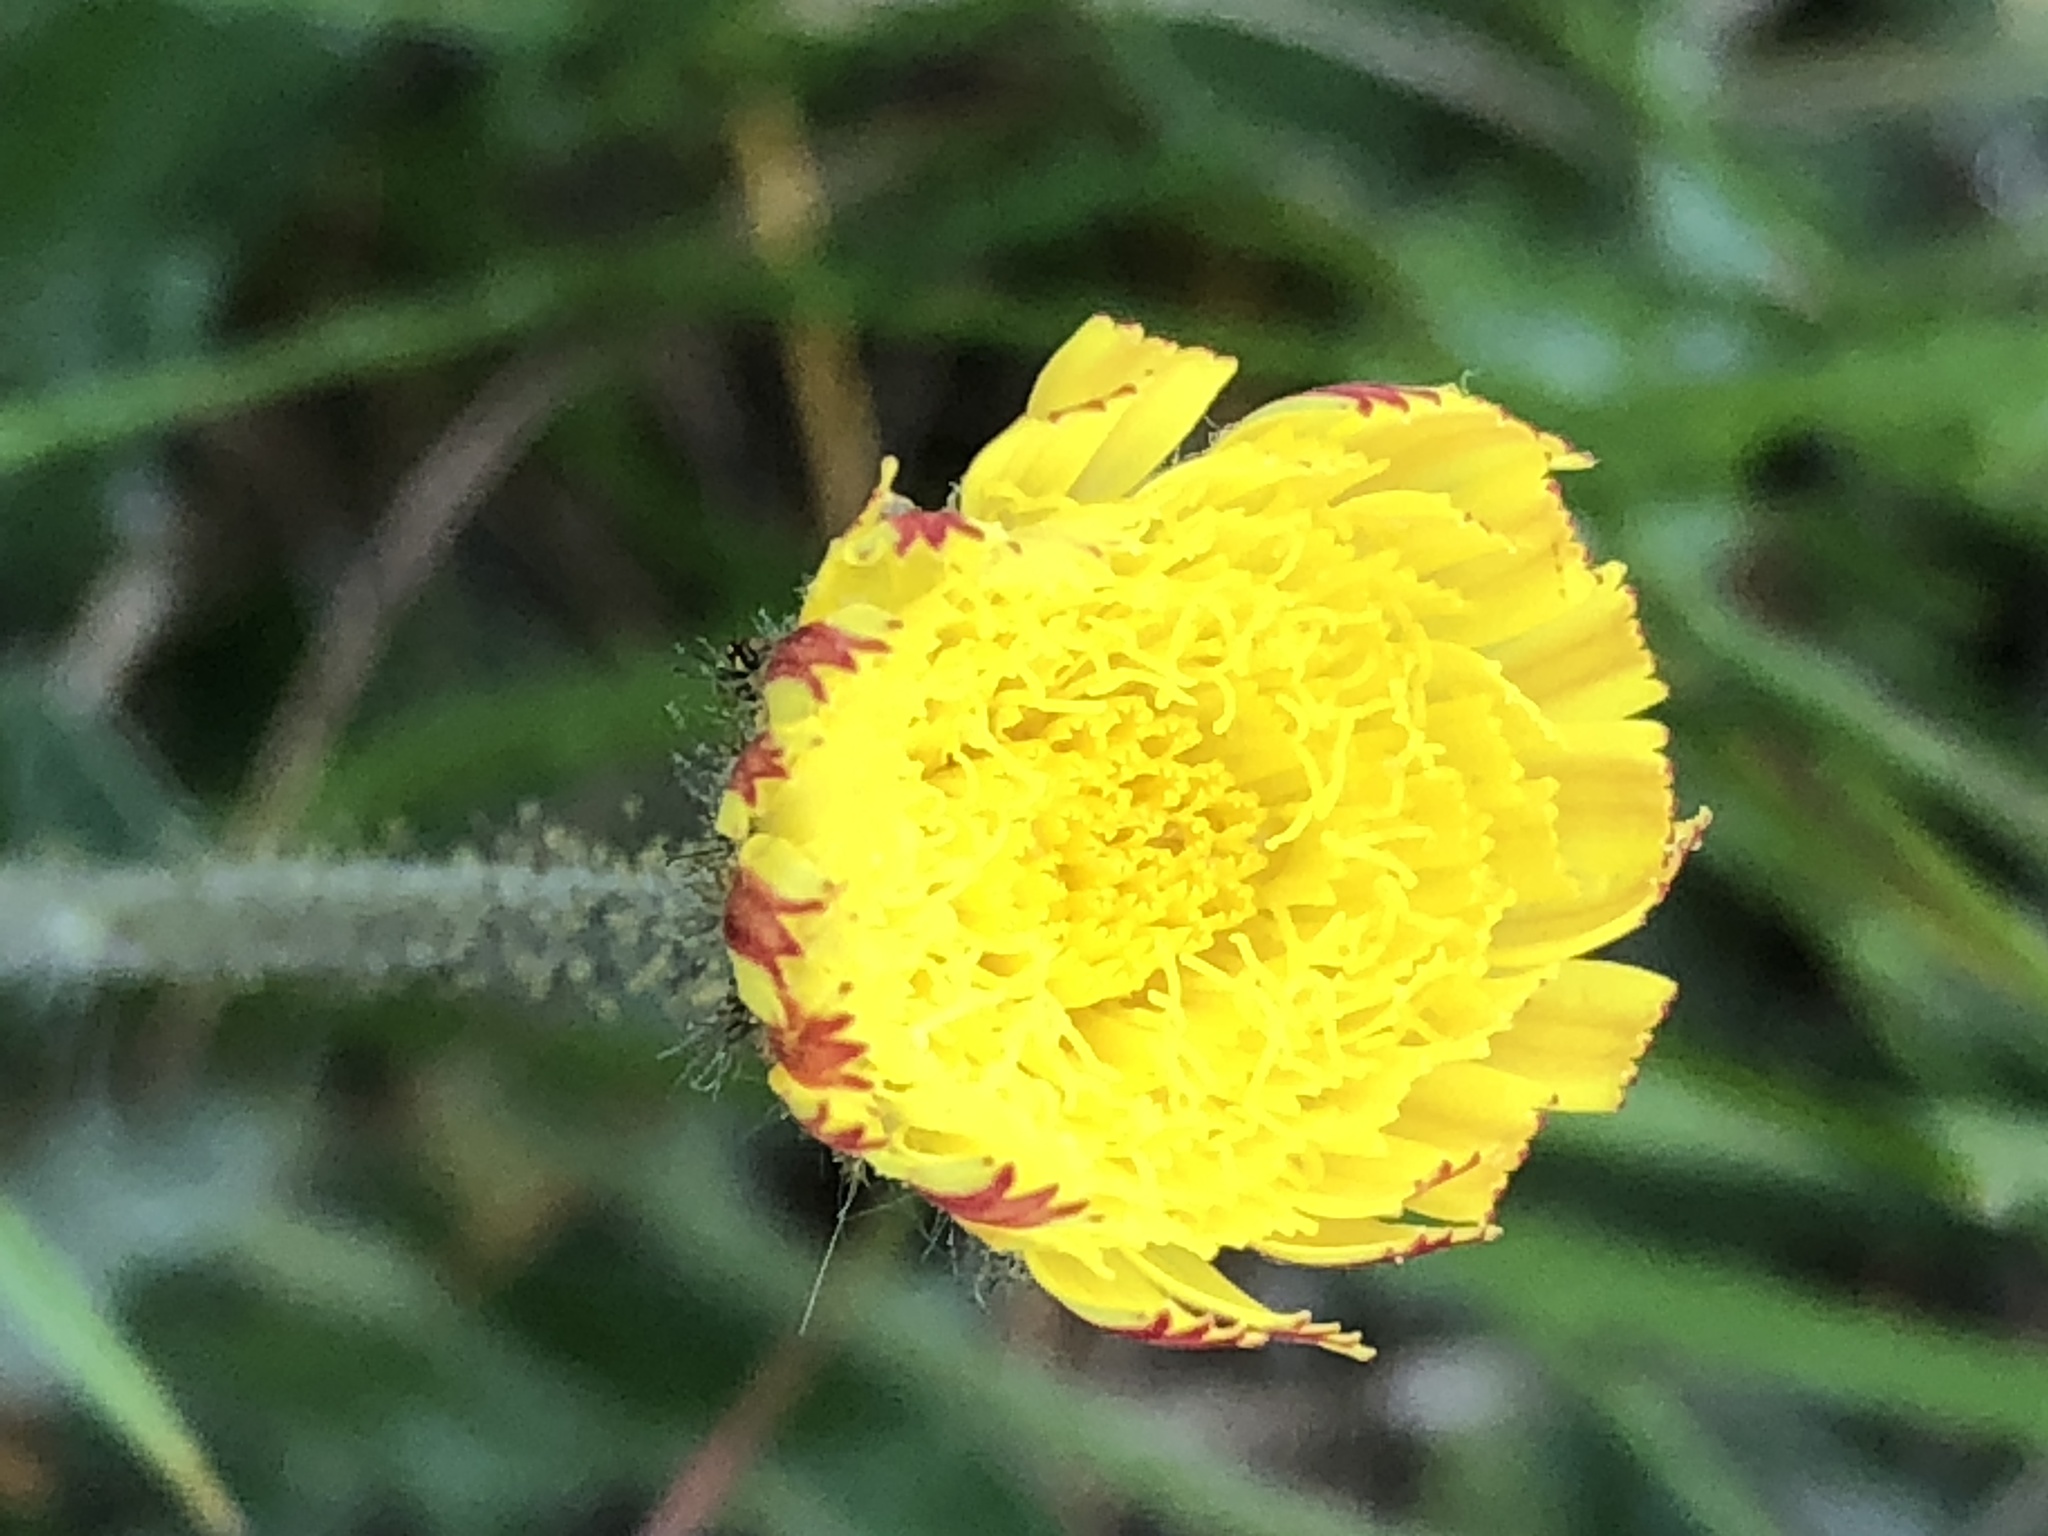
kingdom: Plantae
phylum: Tracheophyta
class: Magnoliopsida
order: Asterales
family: Asteraceae
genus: Pilosella
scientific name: Pilosella officinarum
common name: Mouse-ear hawkweed
